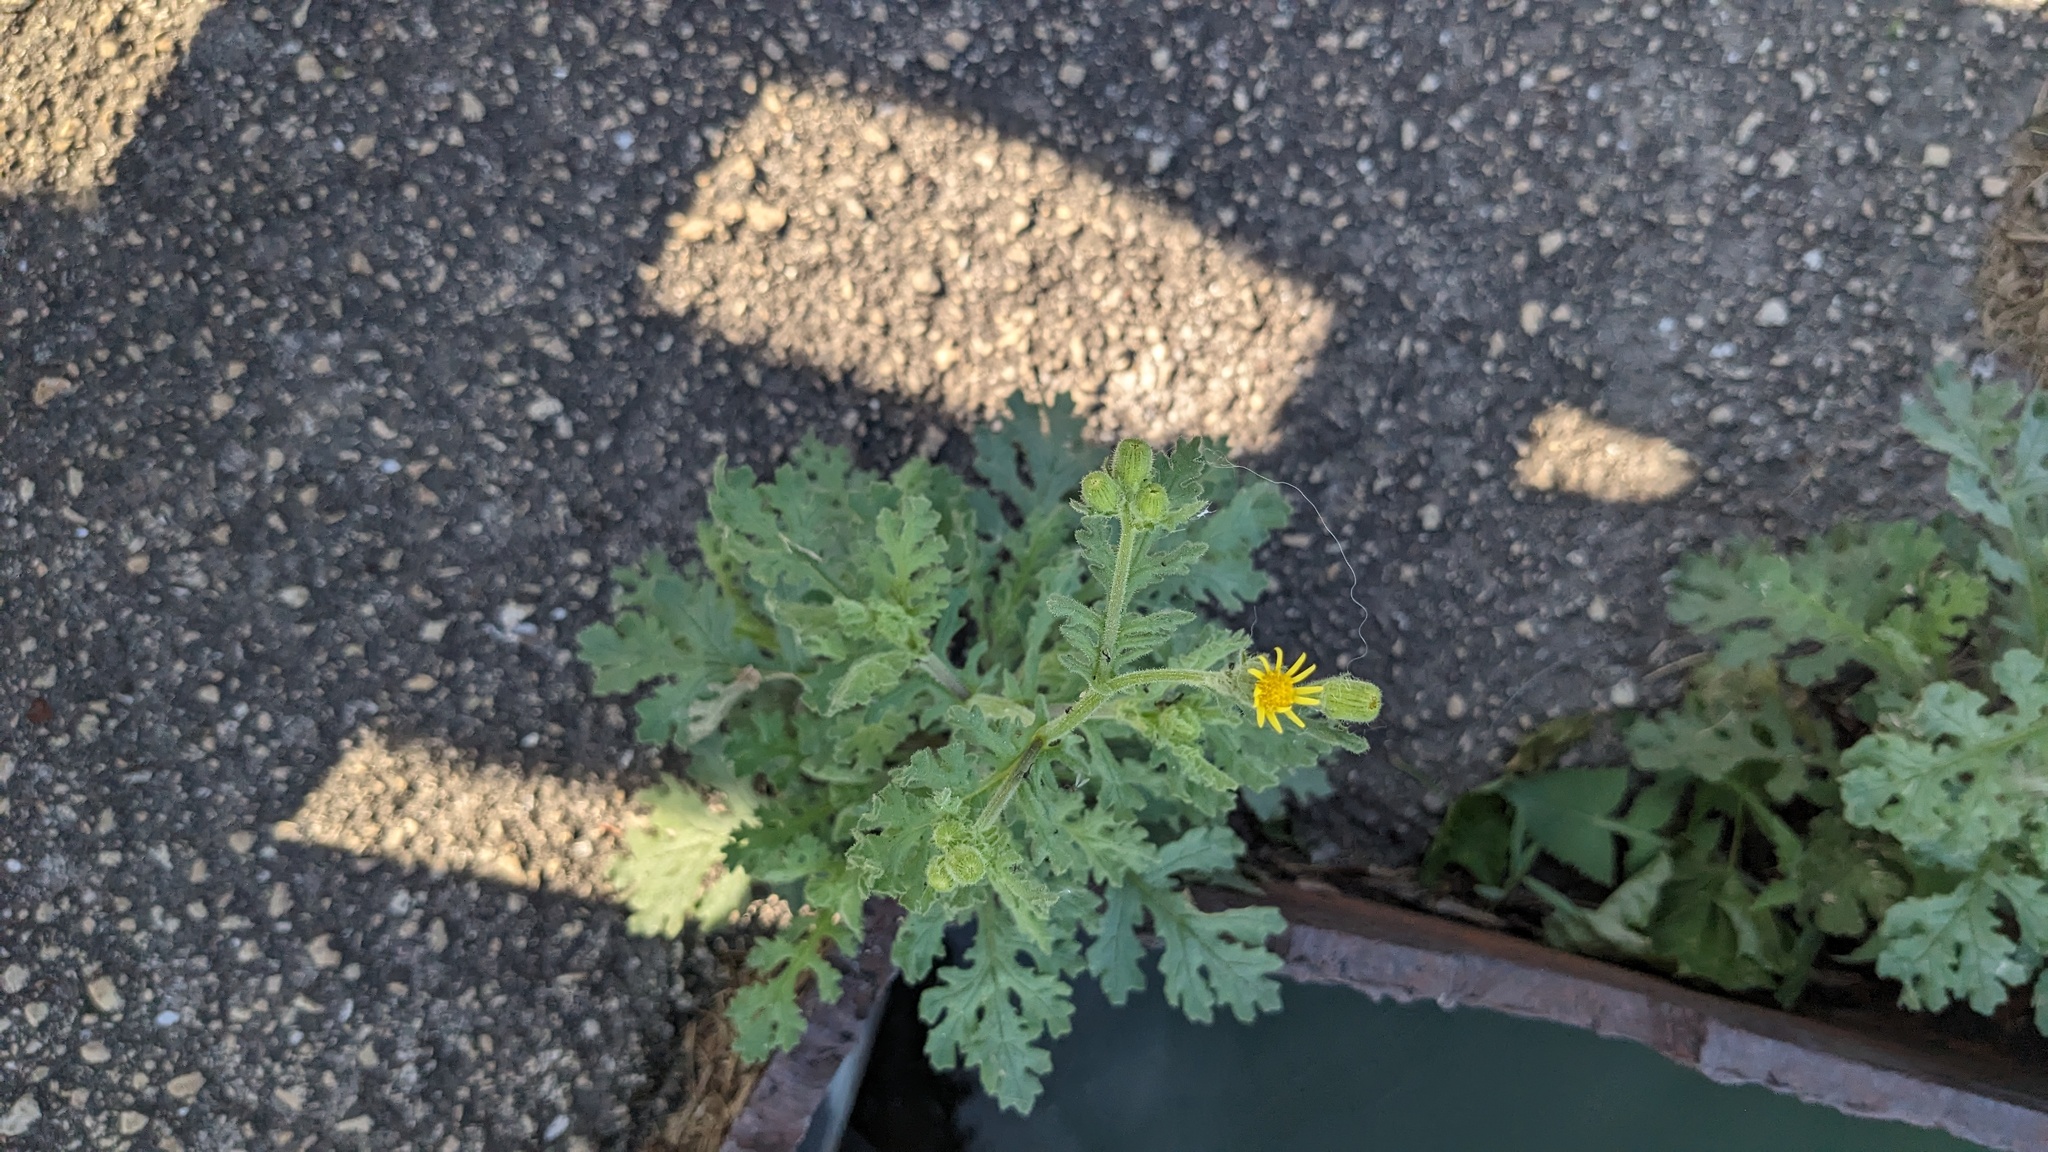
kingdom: Plantae
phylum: Tracheophyta
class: Magnoliopsida
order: Asterales
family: Asteraceae
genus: Senecio
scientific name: Senecio viscosus
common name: Sticky groundsel
